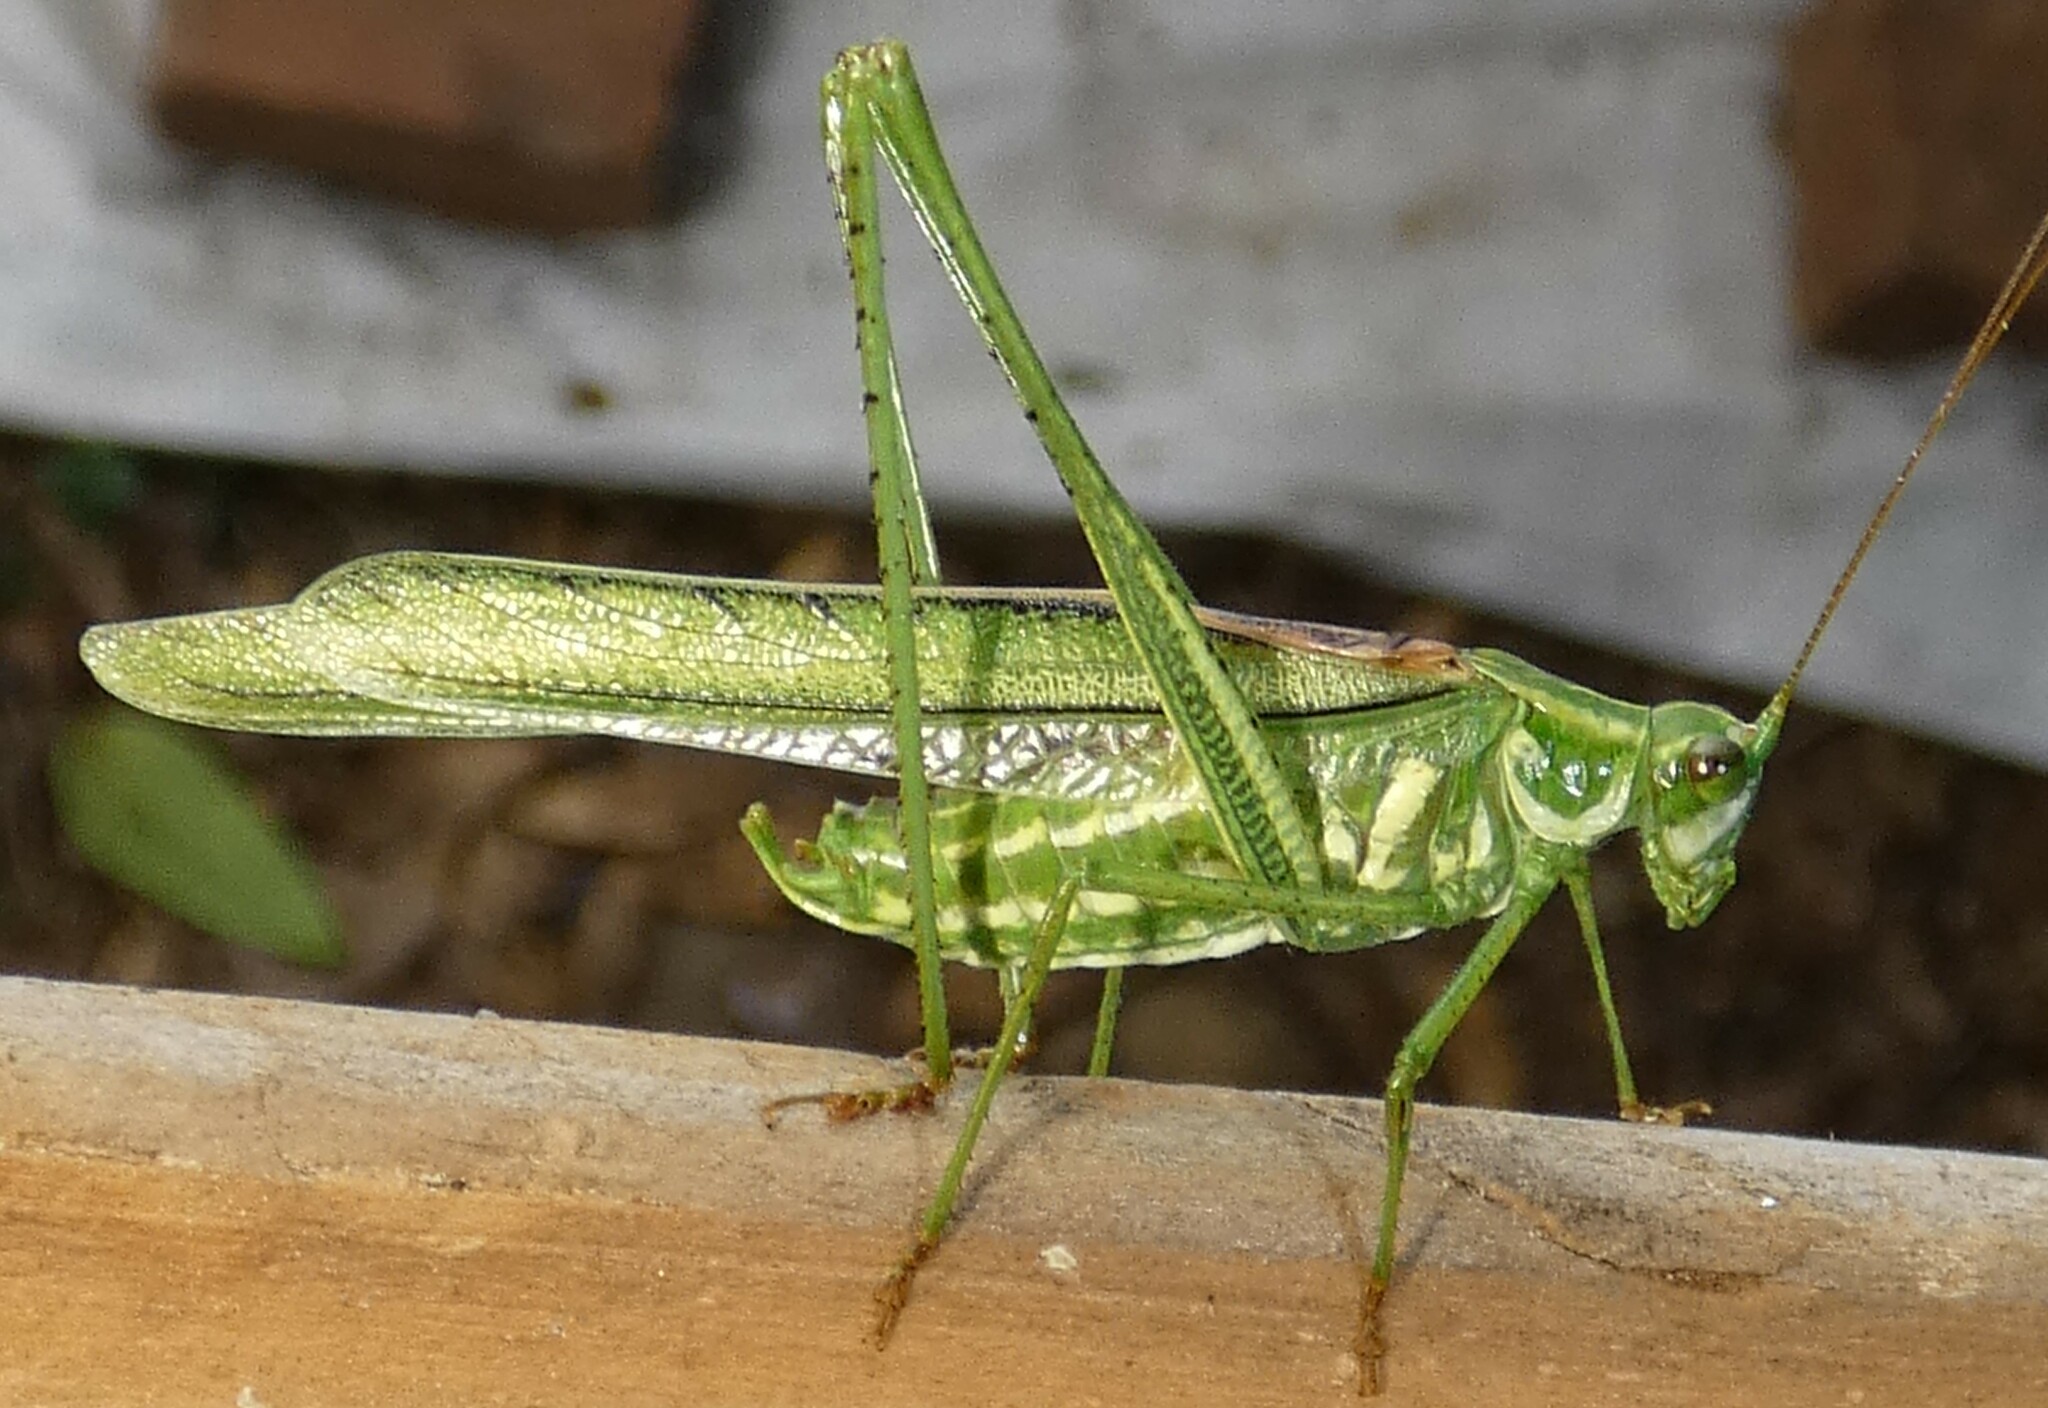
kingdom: Animalia
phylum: Arthropoda
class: Insecta
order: Orthoptera
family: Tettigoniidae
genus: Inscudderia
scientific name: Inscudderia walkeri
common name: Eastern cypress katydid
